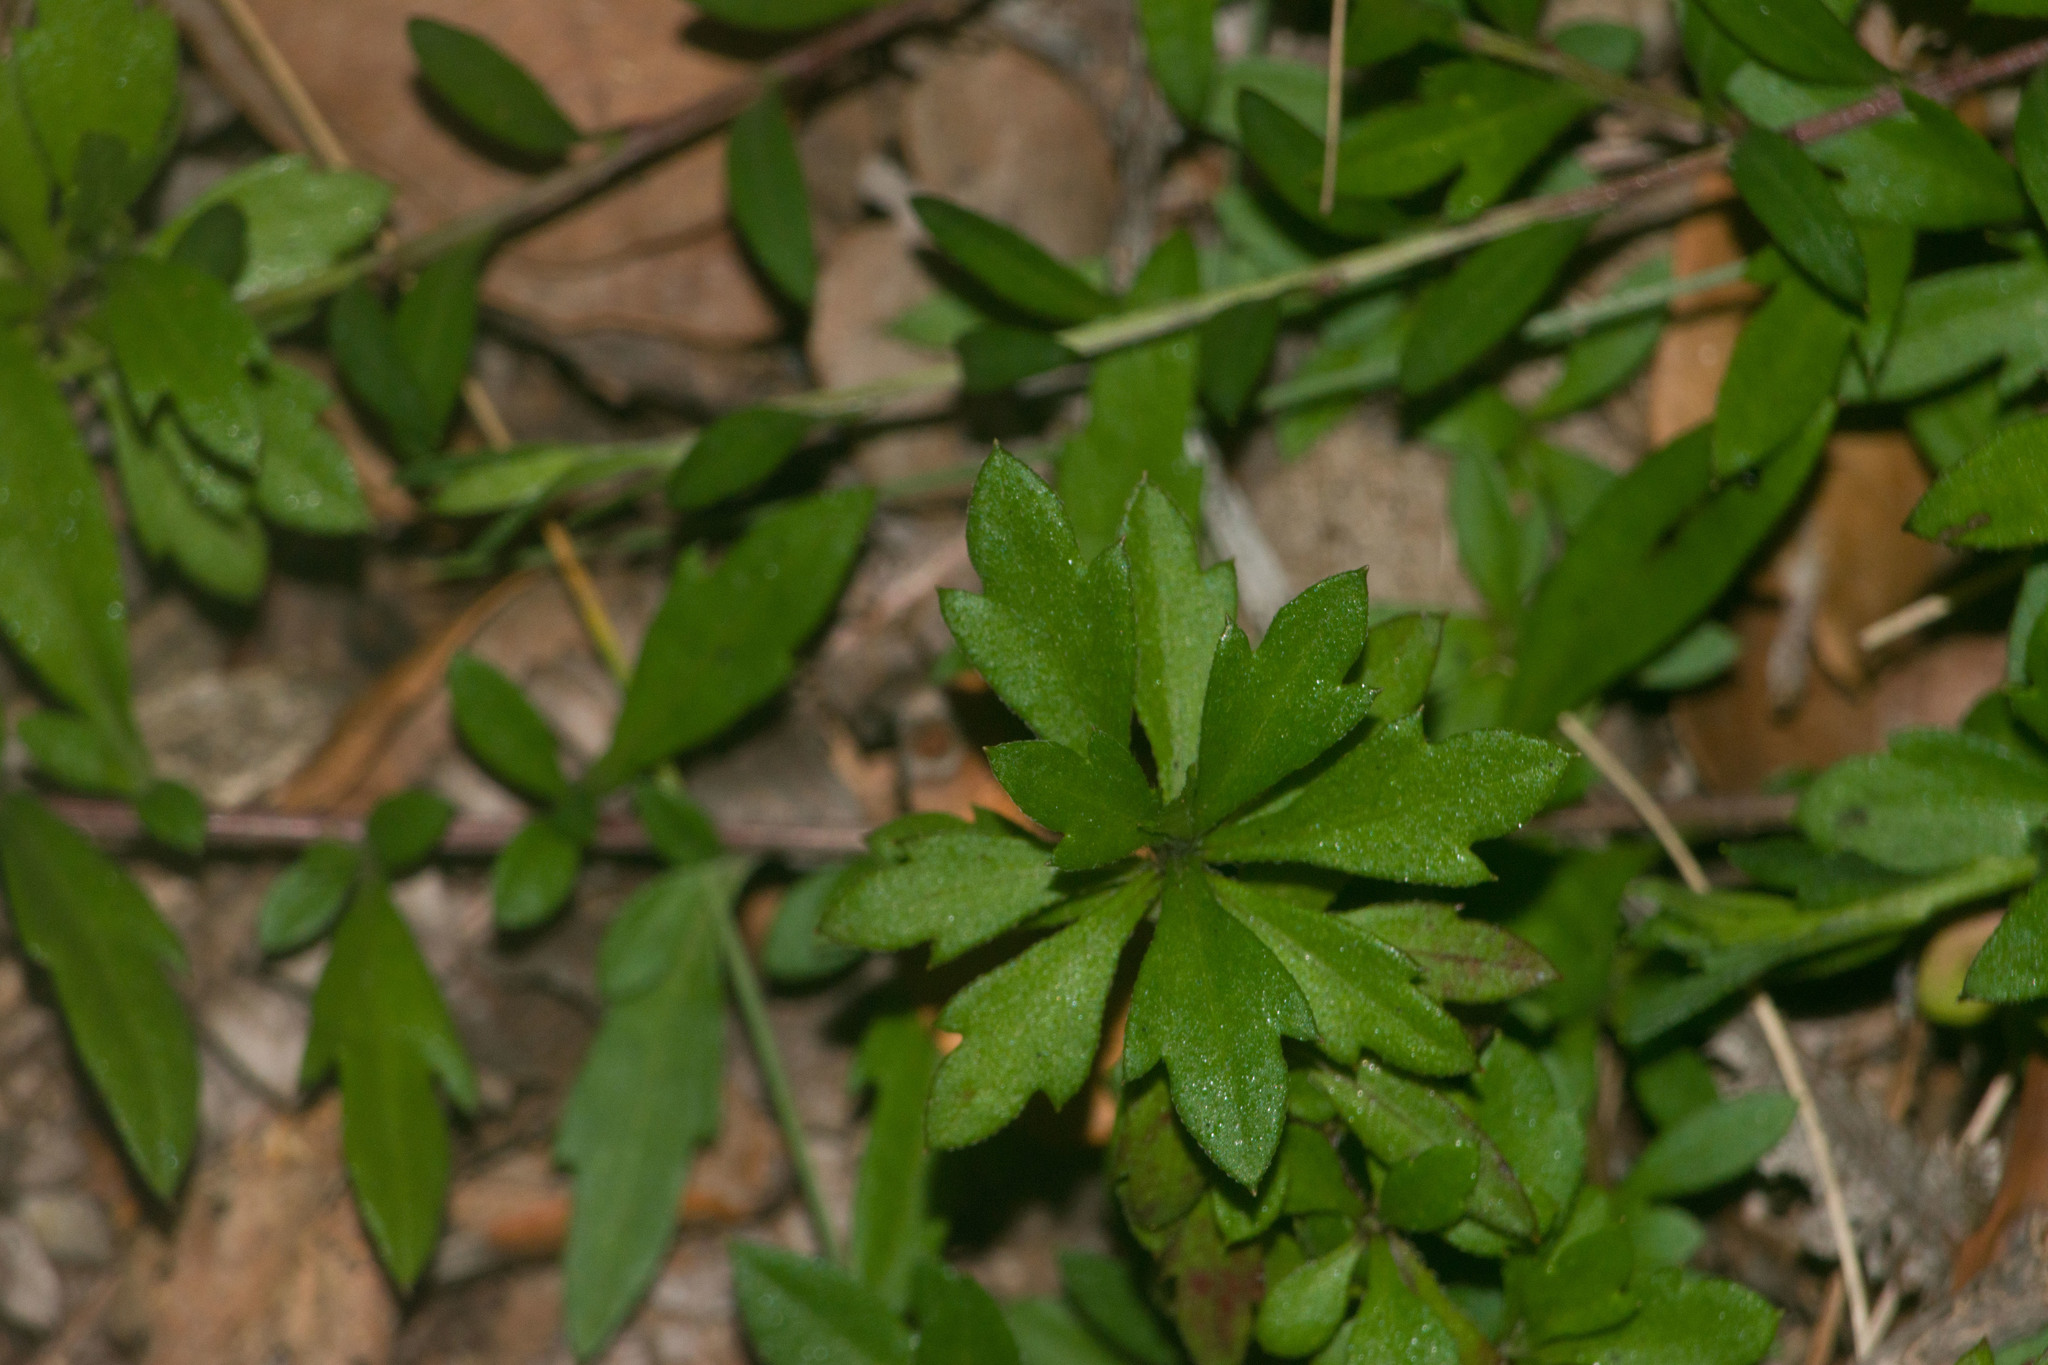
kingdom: Plantae
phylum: Tracheophyta
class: Magnoliopsida
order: Asterales
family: Asteraceae
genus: Erigeron
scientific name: Erigeron karvinskianus
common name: Mexican fleabane
